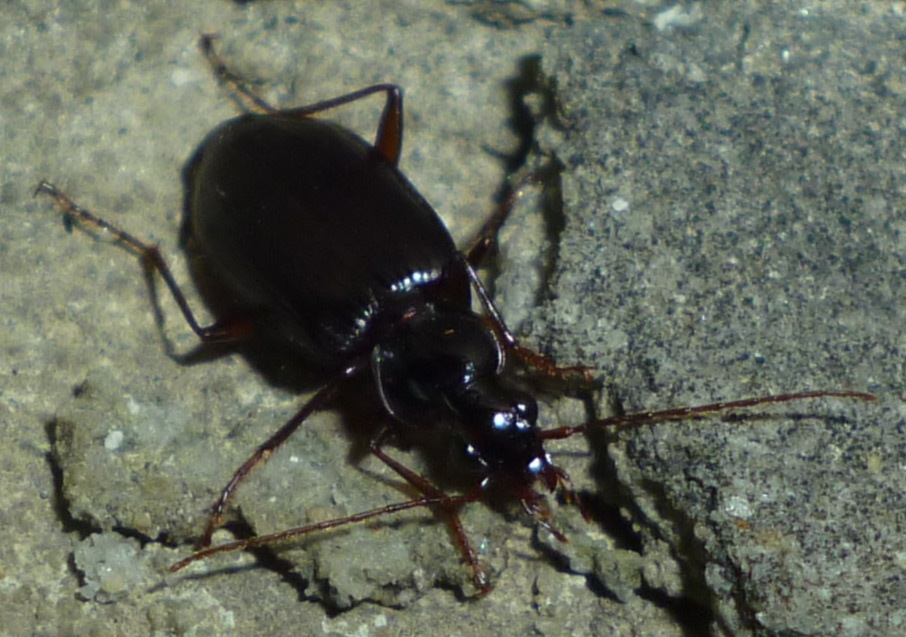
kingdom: Animalia
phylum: Arthropoda
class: Insecta
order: Coleoptera
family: Carabidae
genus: Platynus
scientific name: Platynus cincticollis
